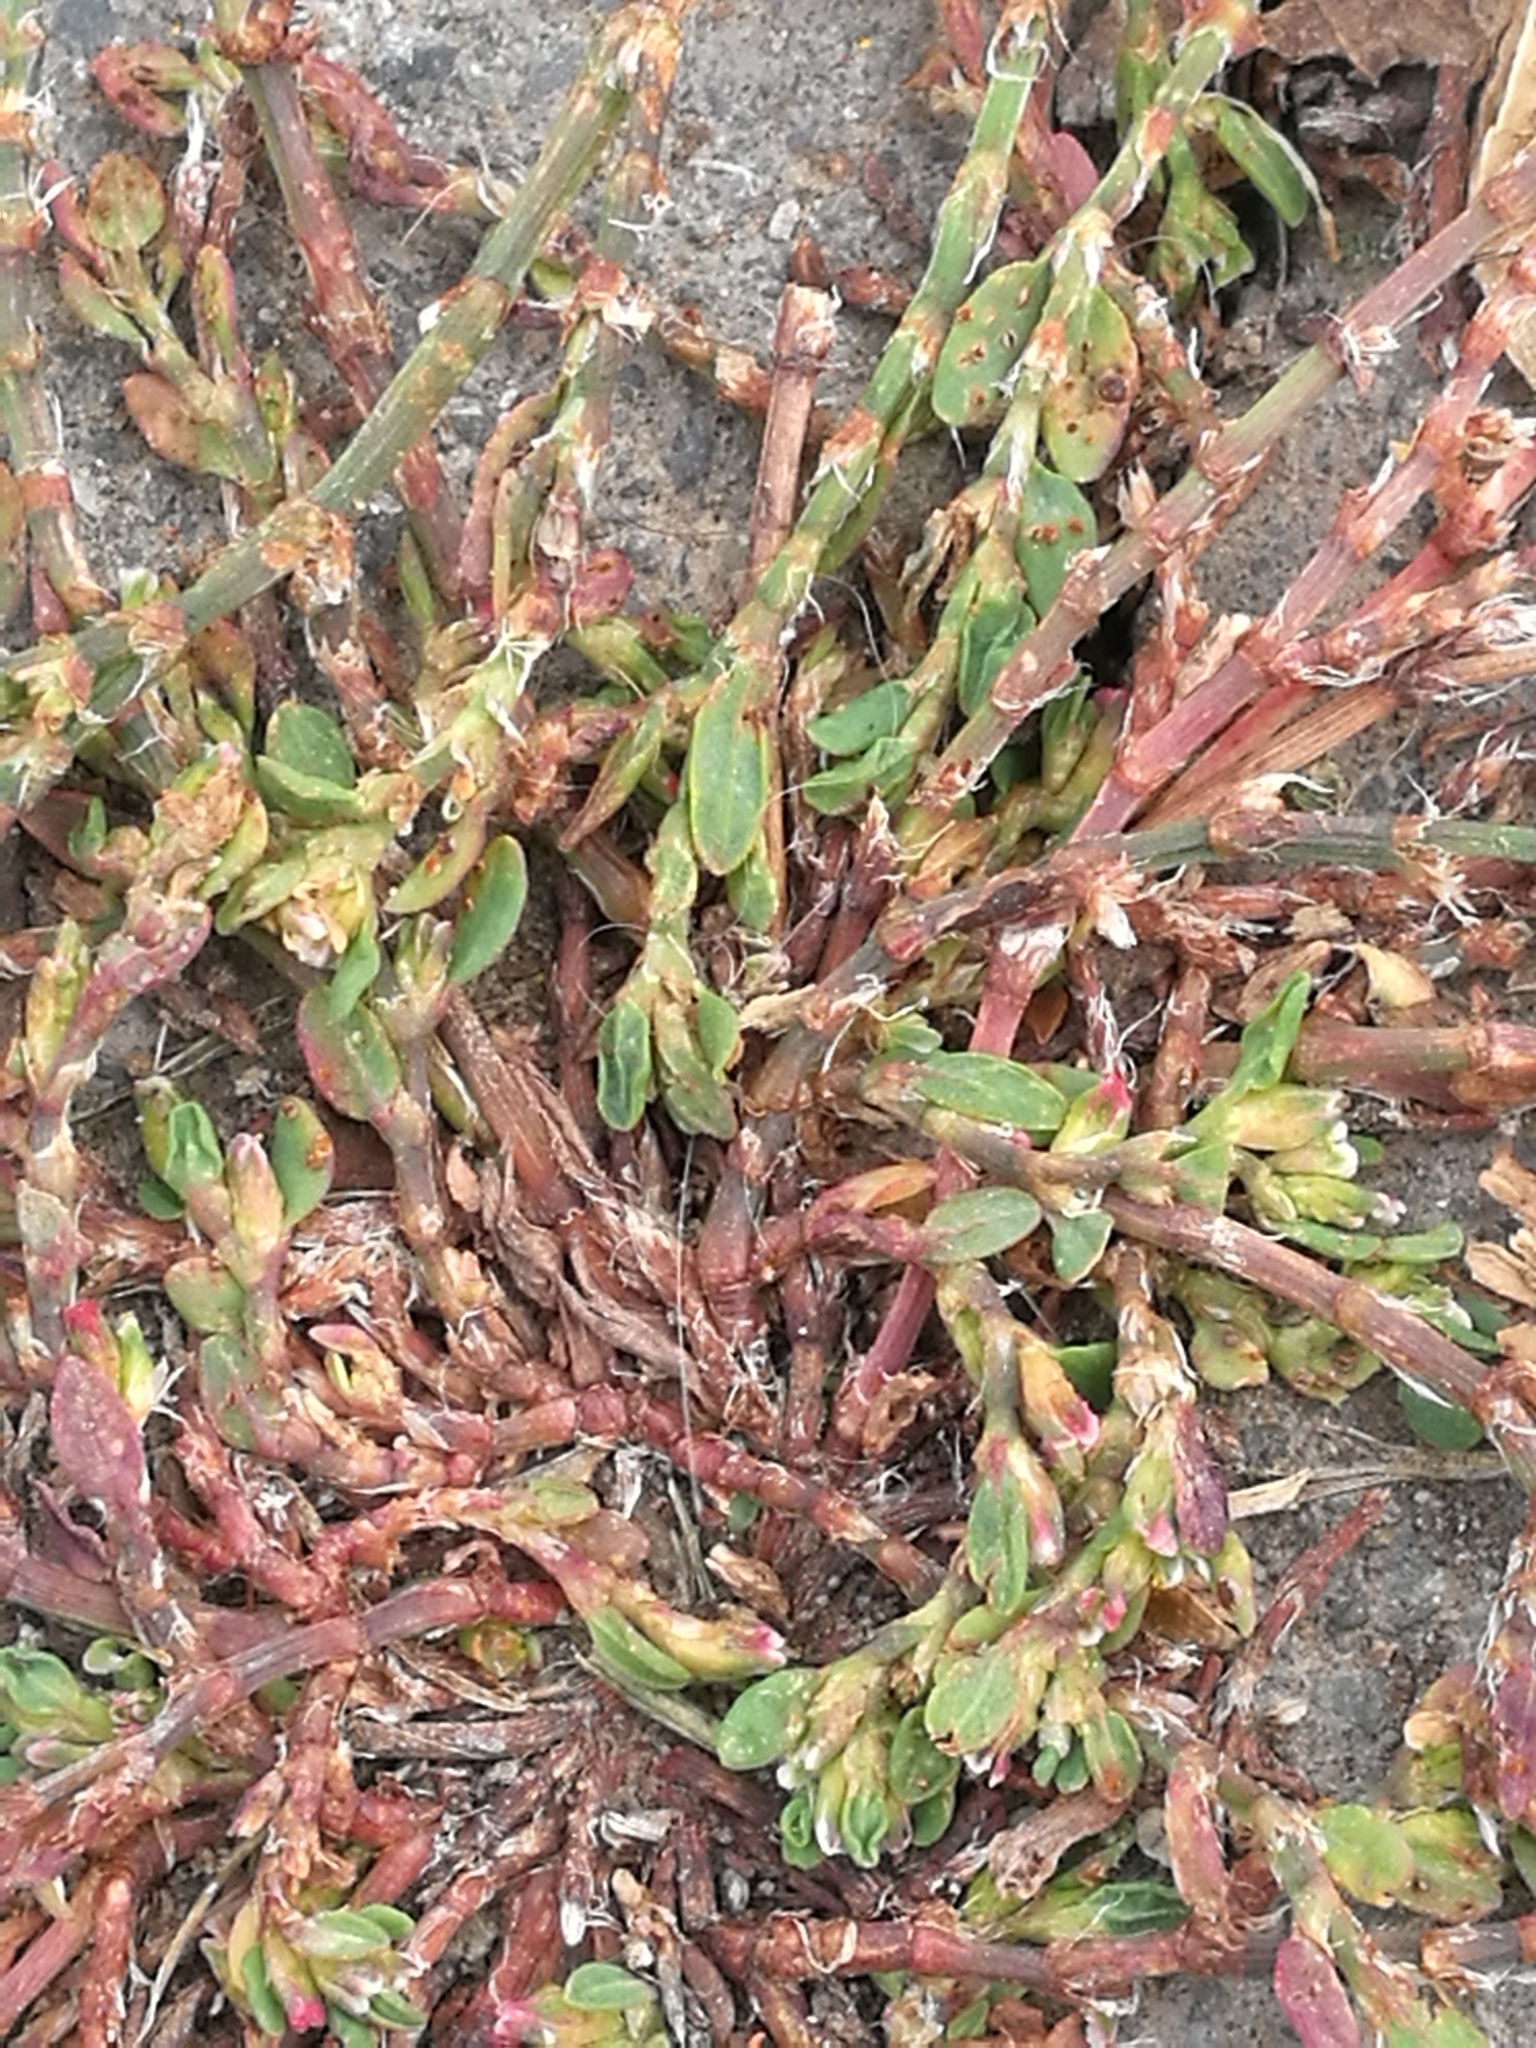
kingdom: Plantae
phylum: Tracheophyta
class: Magnoliopsida
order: Caryophyllales
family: Polygonaceae
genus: Polygonum
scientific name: Polygonum aviculare
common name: Prostrate knotweed
